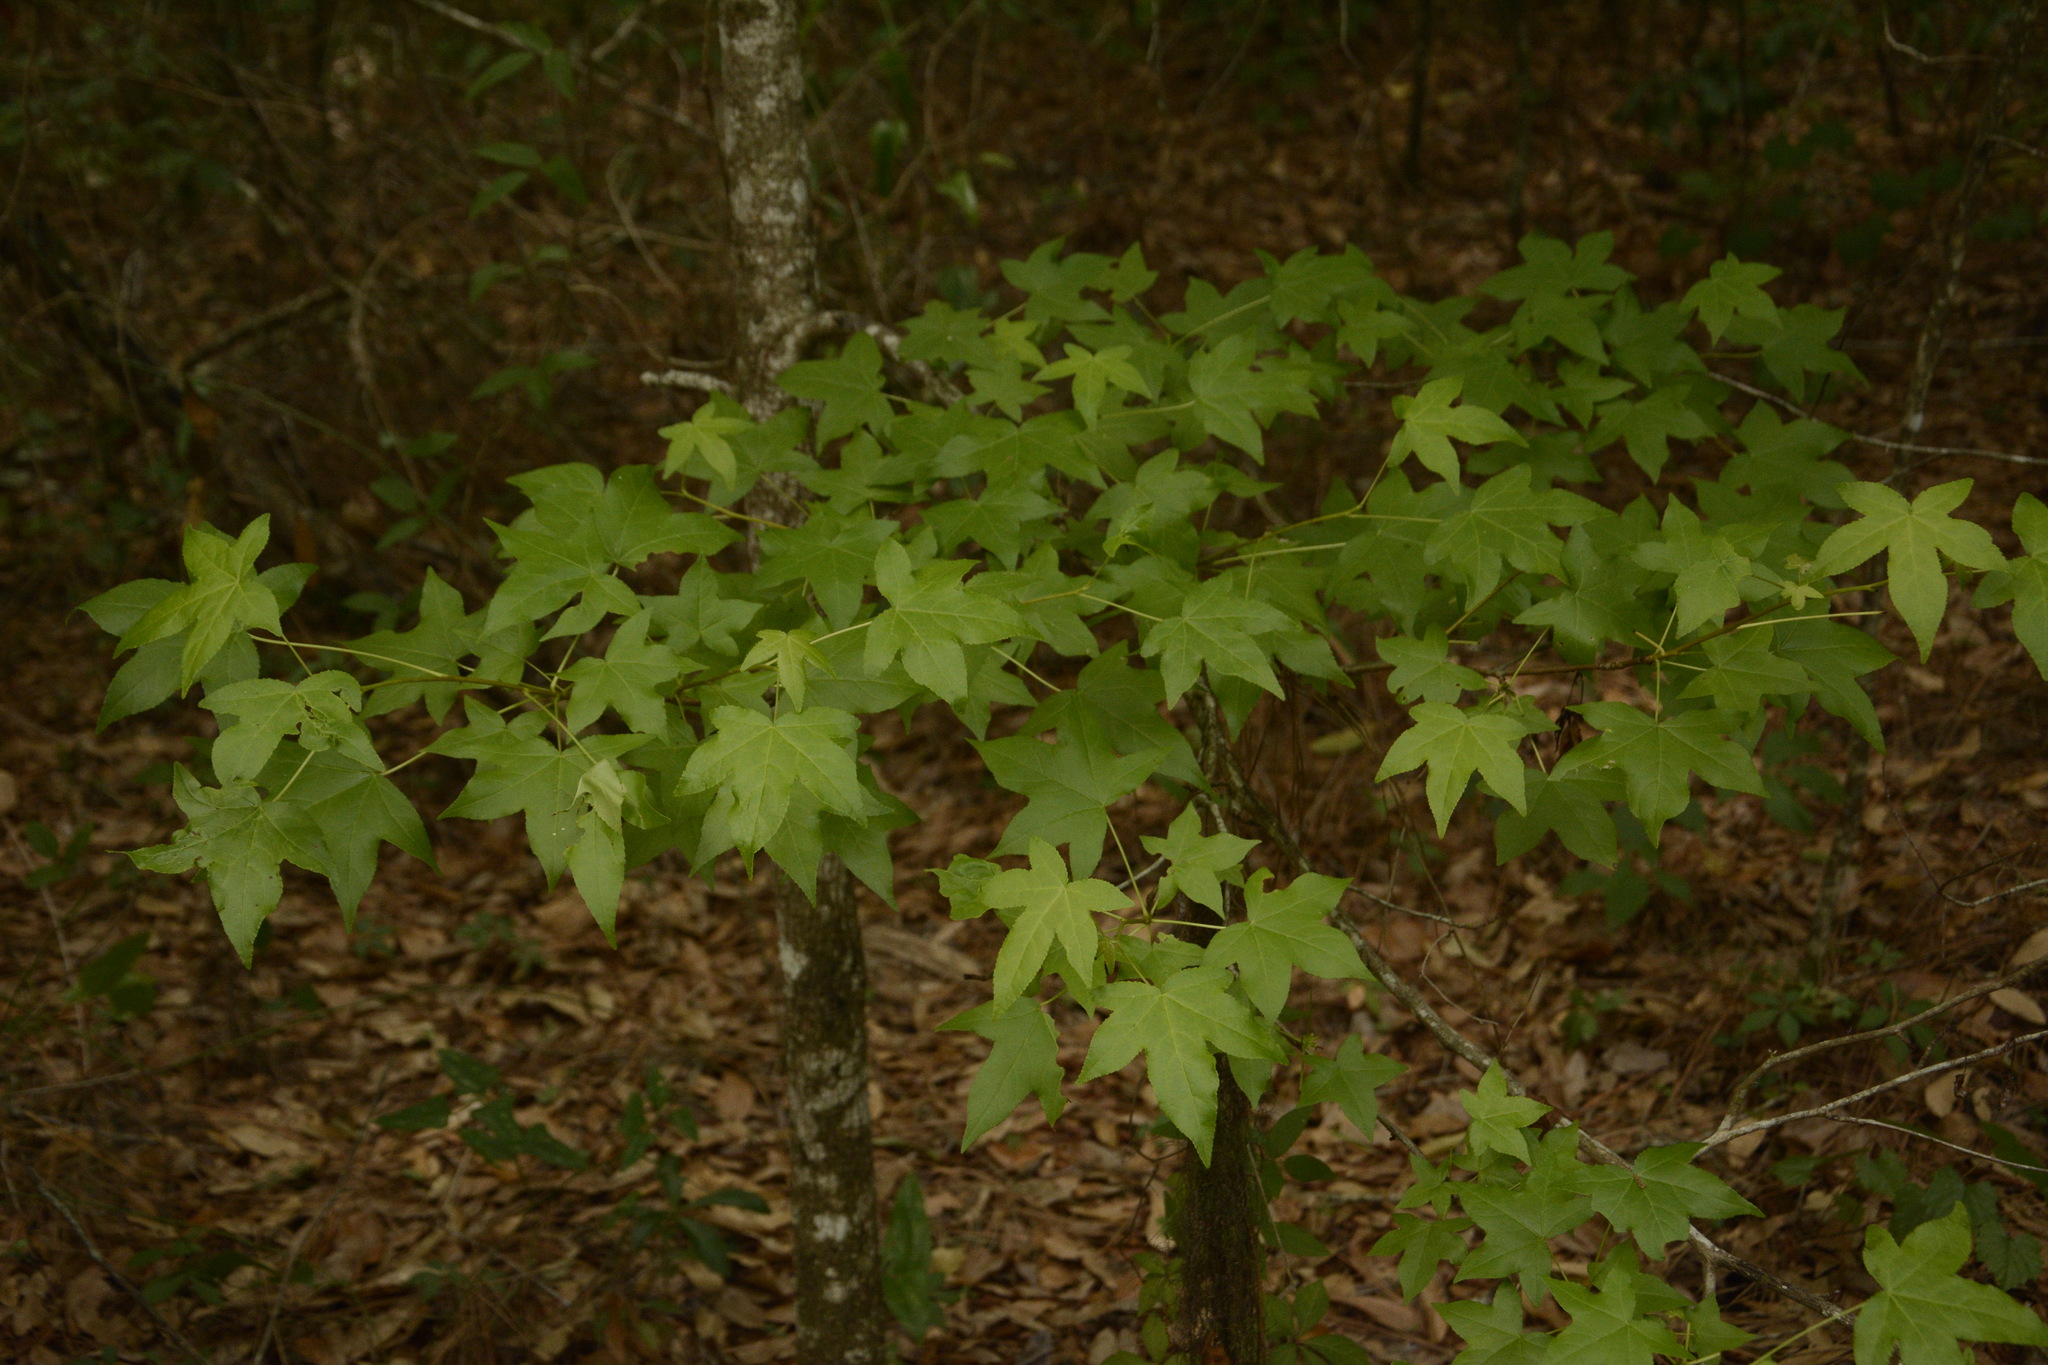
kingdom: Plantae
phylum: Tracheophyta
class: Magnoliopsida
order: Saxifragales
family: Altingiaceae
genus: Liquidambar
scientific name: Liquidambar styraciflua
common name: Sweet gum
